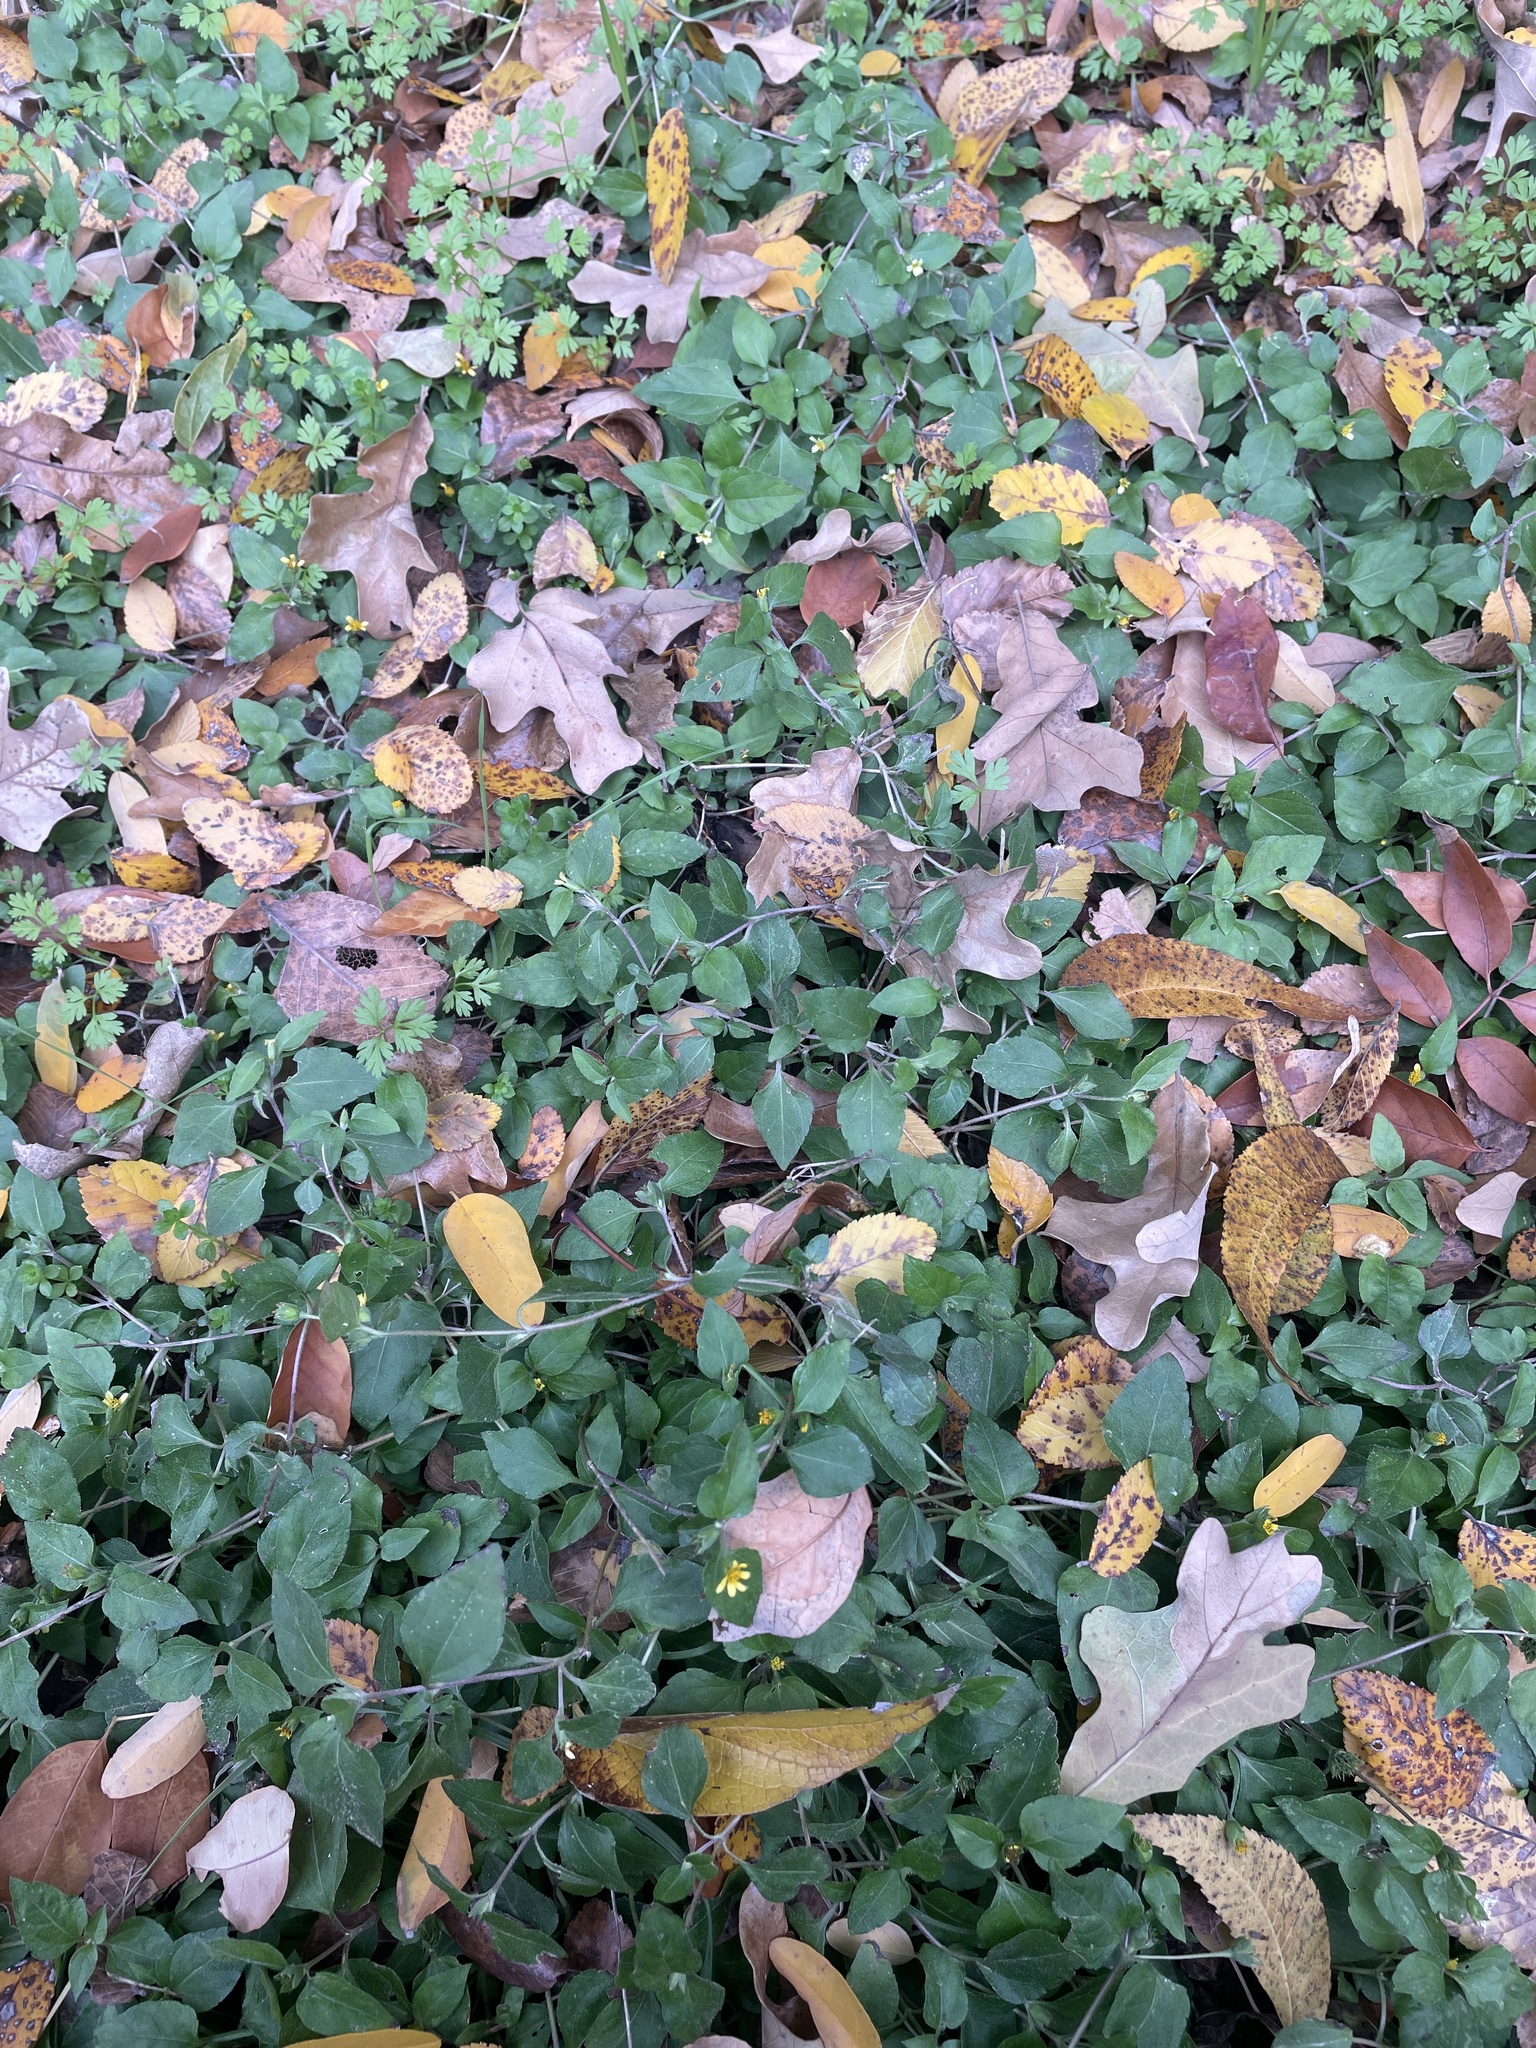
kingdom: Plantae
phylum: Tracheophyta
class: Magnoliopsida
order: Asterales
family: Asteraceae
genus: Calyptocarpus
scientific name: Calyptocarpus vialis
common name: Straggler daisy
